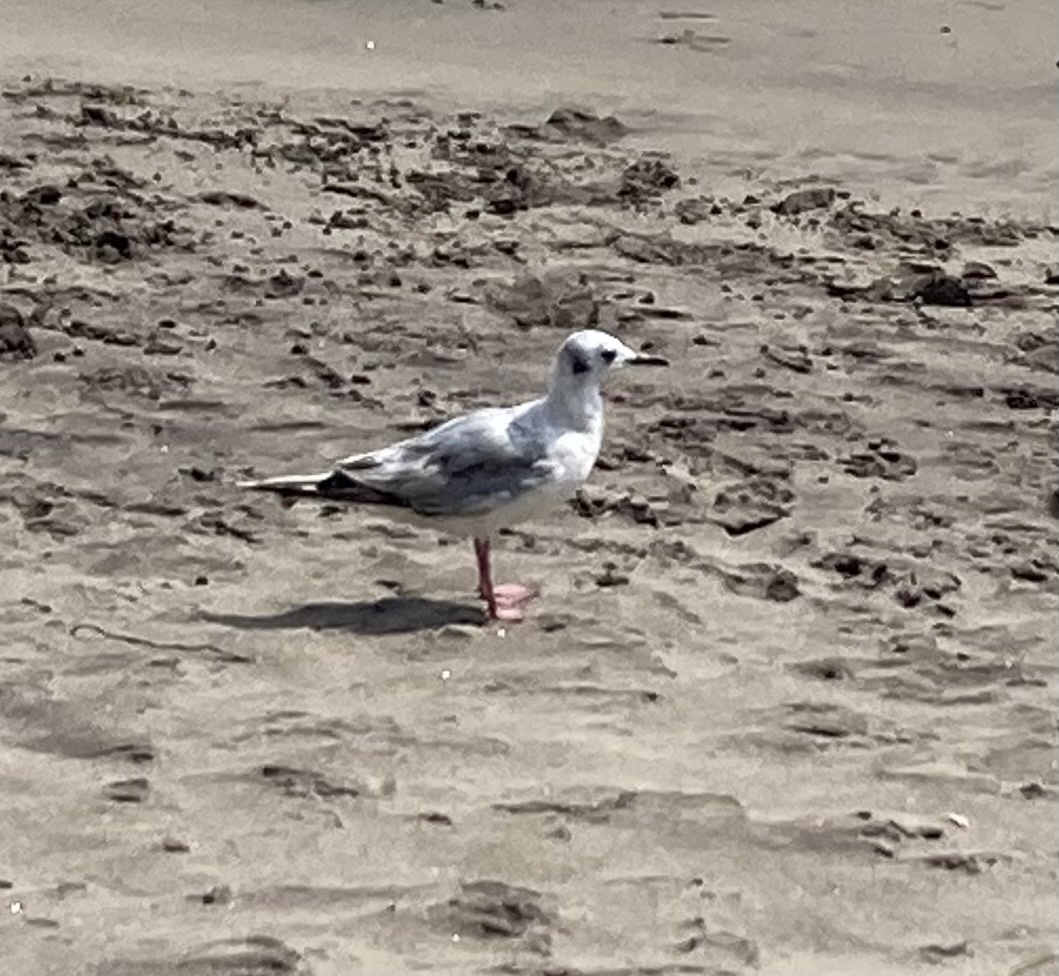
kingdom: Animalia
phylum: Chordata
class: Aves
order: Charadriiformes
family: Laridae
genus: Chroicocephalus
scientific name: Chroicocephalus philadelphia
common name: Bonaparte's gull
